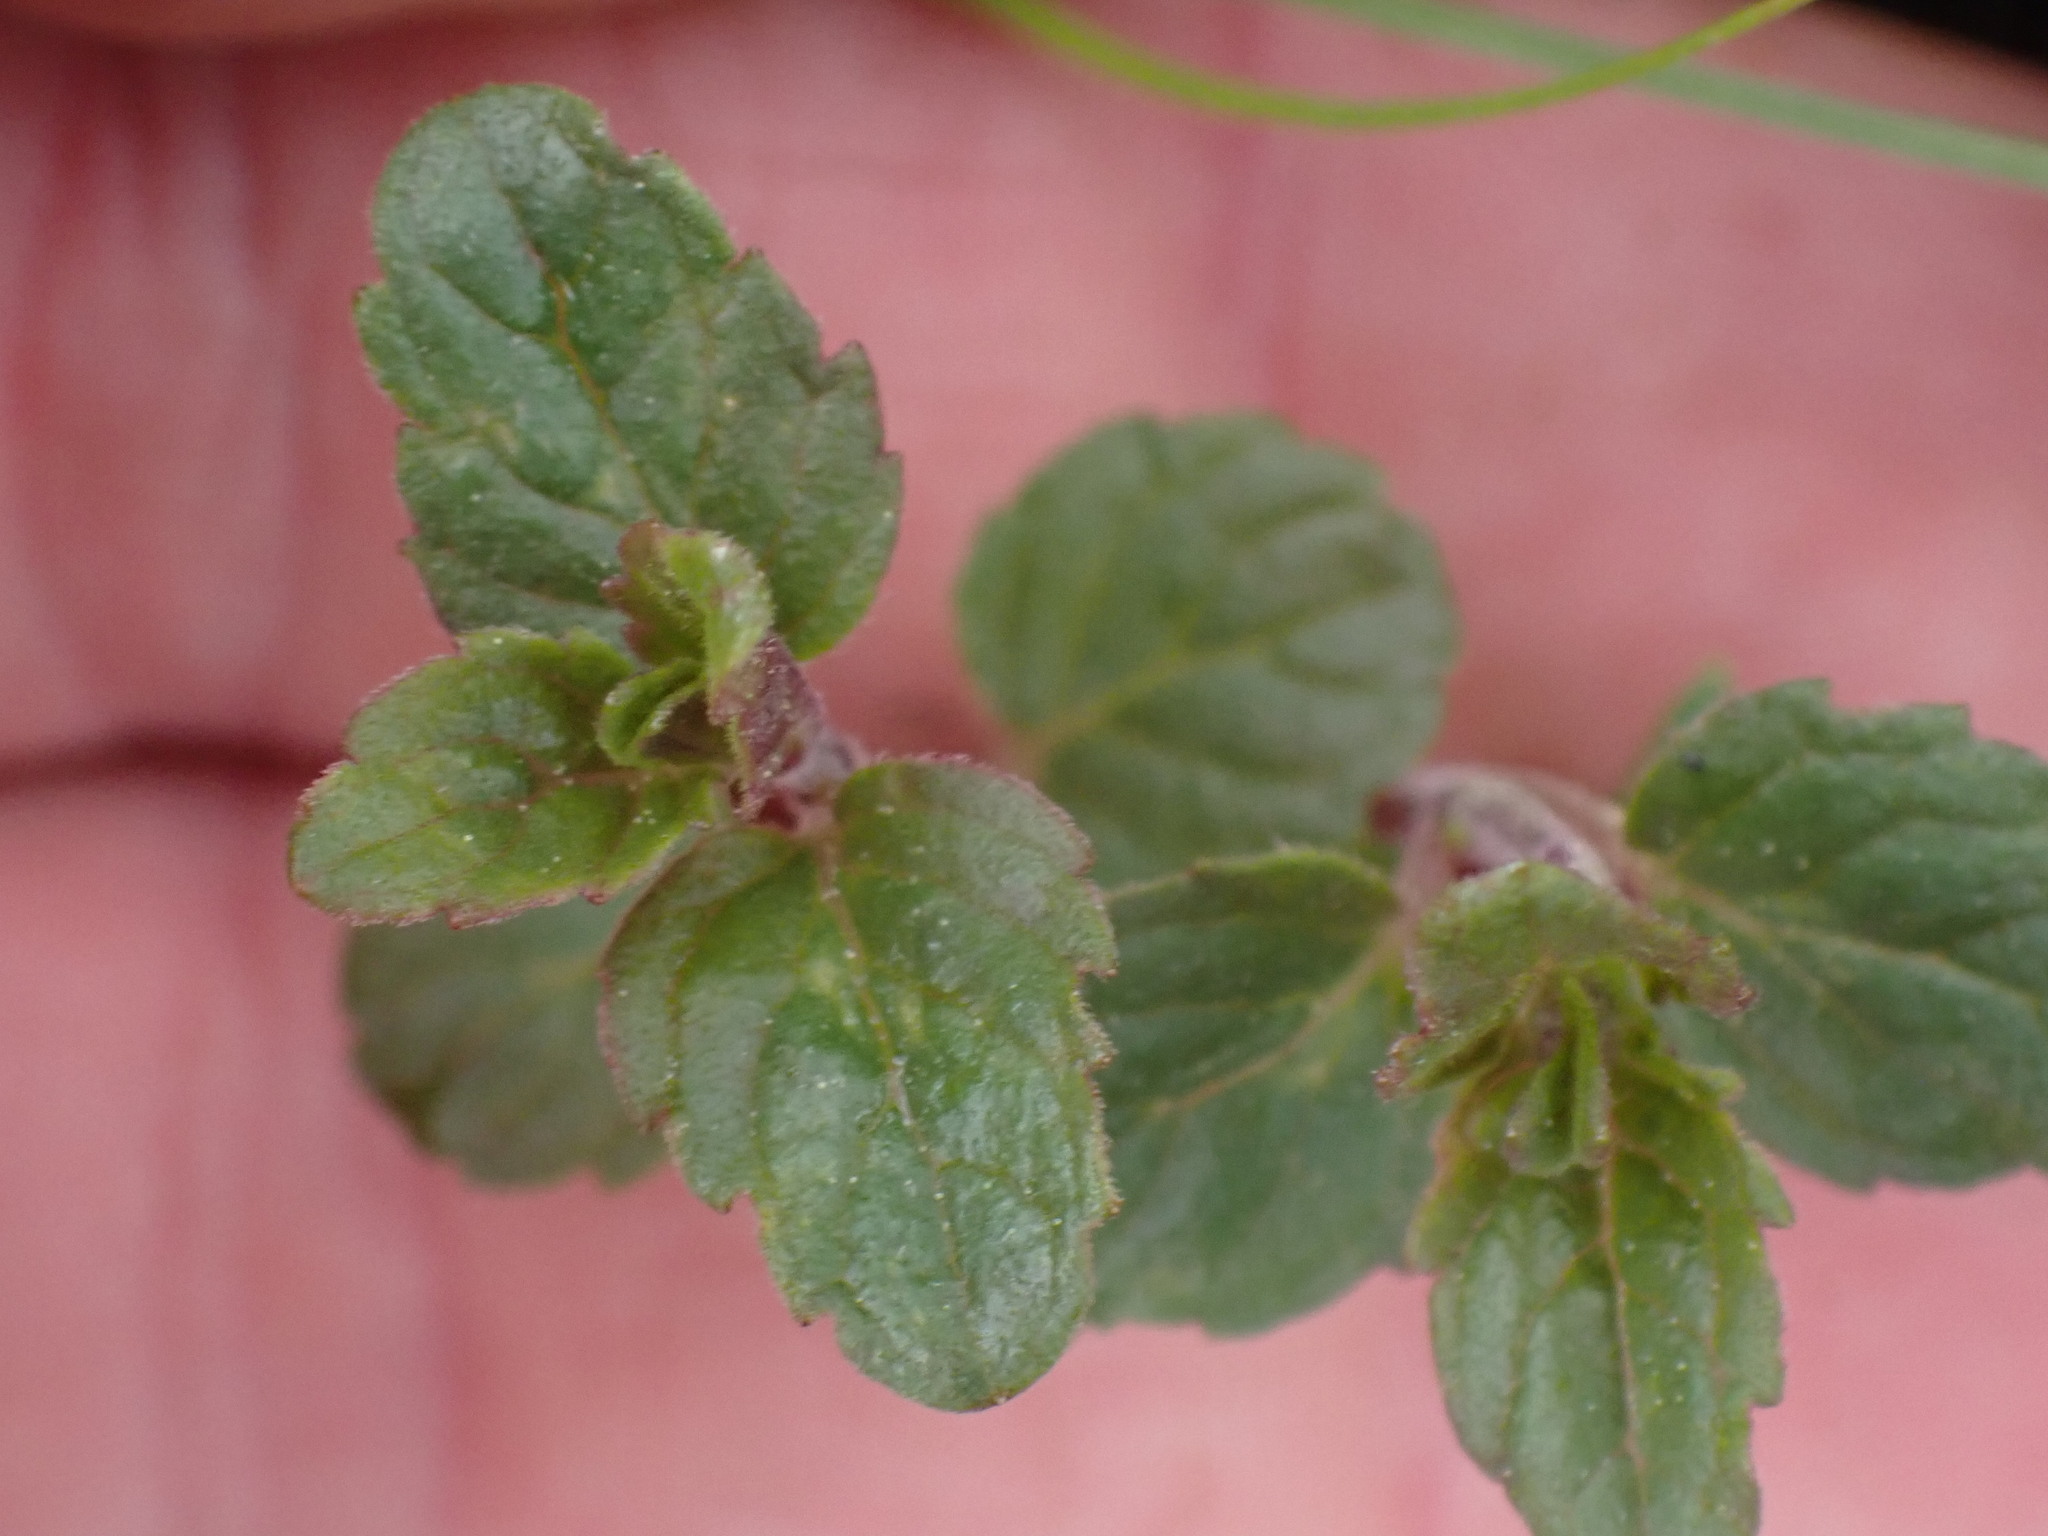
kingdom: Plantae
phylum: Tracheophyta
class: Magnoliopsida
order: Lamiales
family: Lamiaceae
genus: Micromeria
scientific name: Micromeria douglasii
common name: Yerba buena
